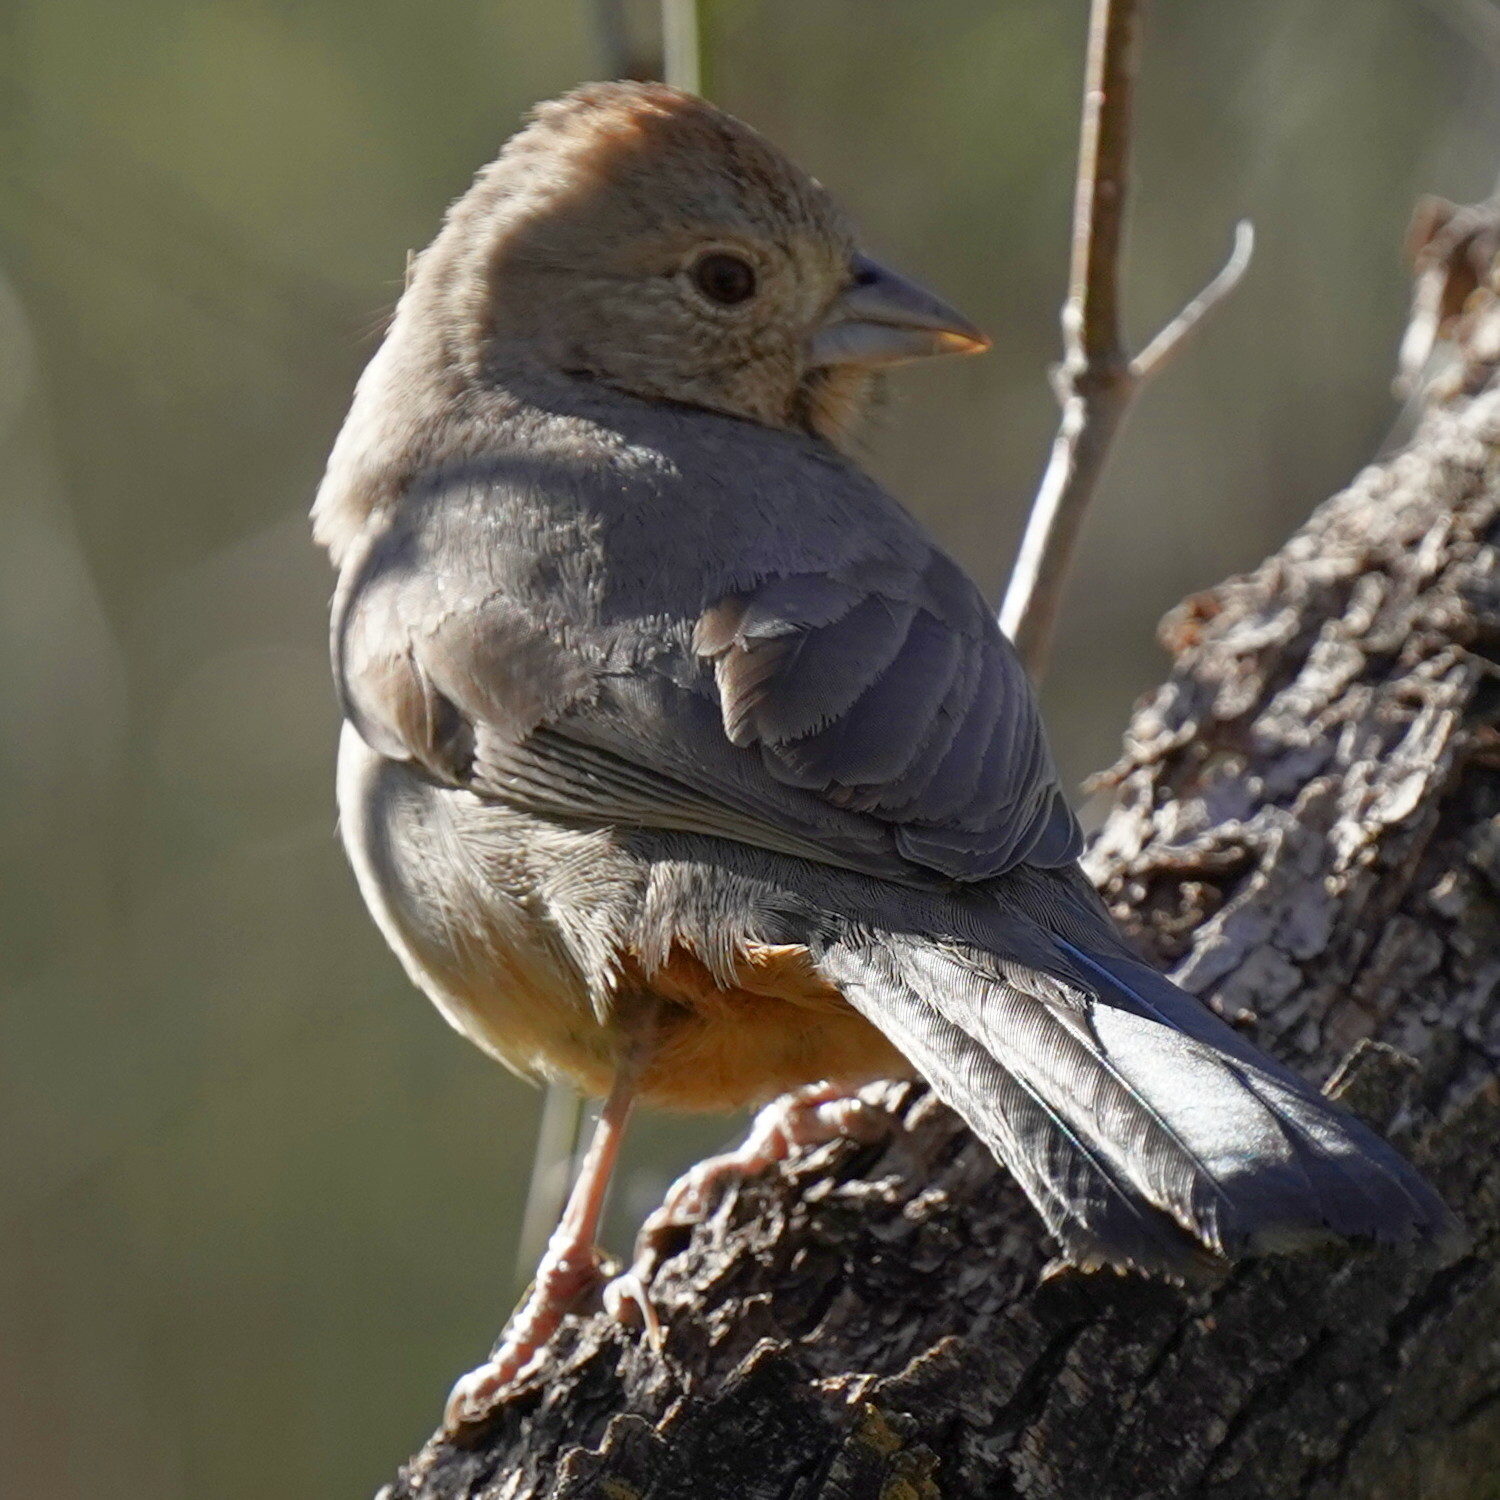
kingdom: Animalia
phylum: Chordata
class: Aves
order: Passeriformes
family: Passerellidae
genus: Melozone
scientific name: Melozone fusca
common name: Canyon towhee
